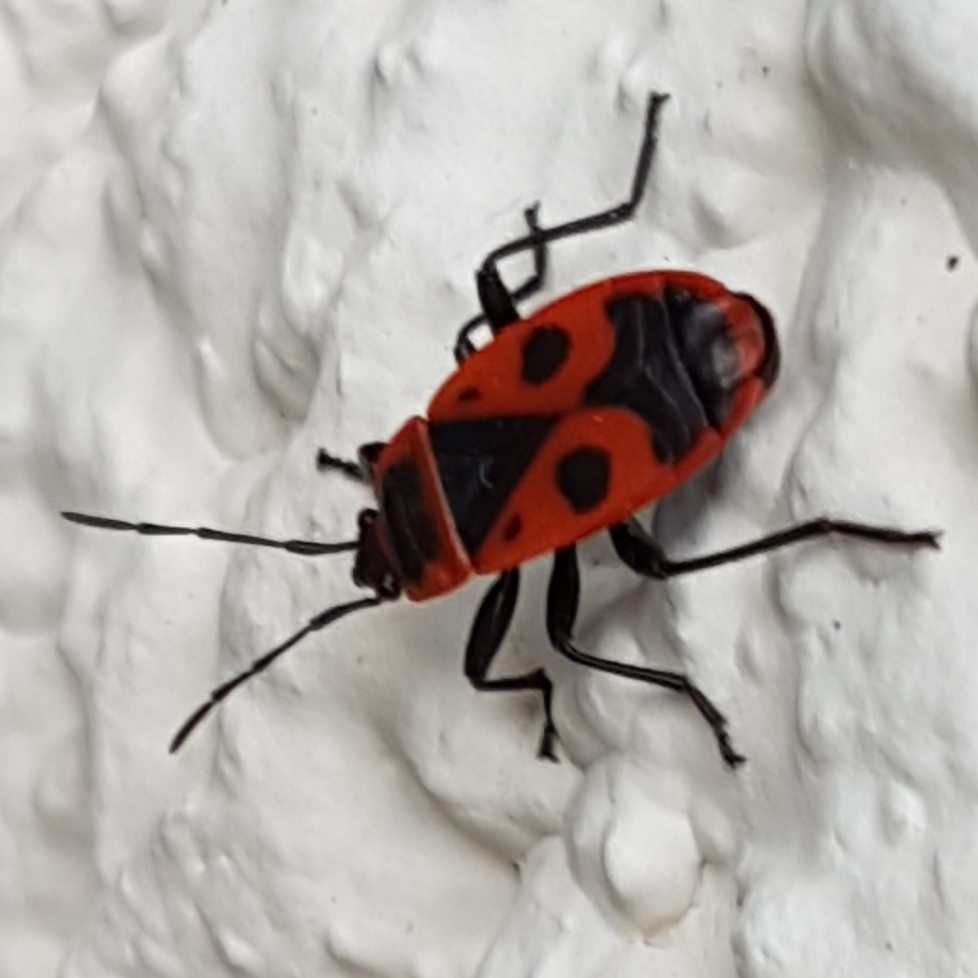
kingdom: Animalia
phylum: Arthropoda
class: Insecta
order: Hemiptera
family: Pyrrhocoridae
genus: Pyrrhocoris
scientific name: Pyrrhocoris apterus
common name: Firebug
